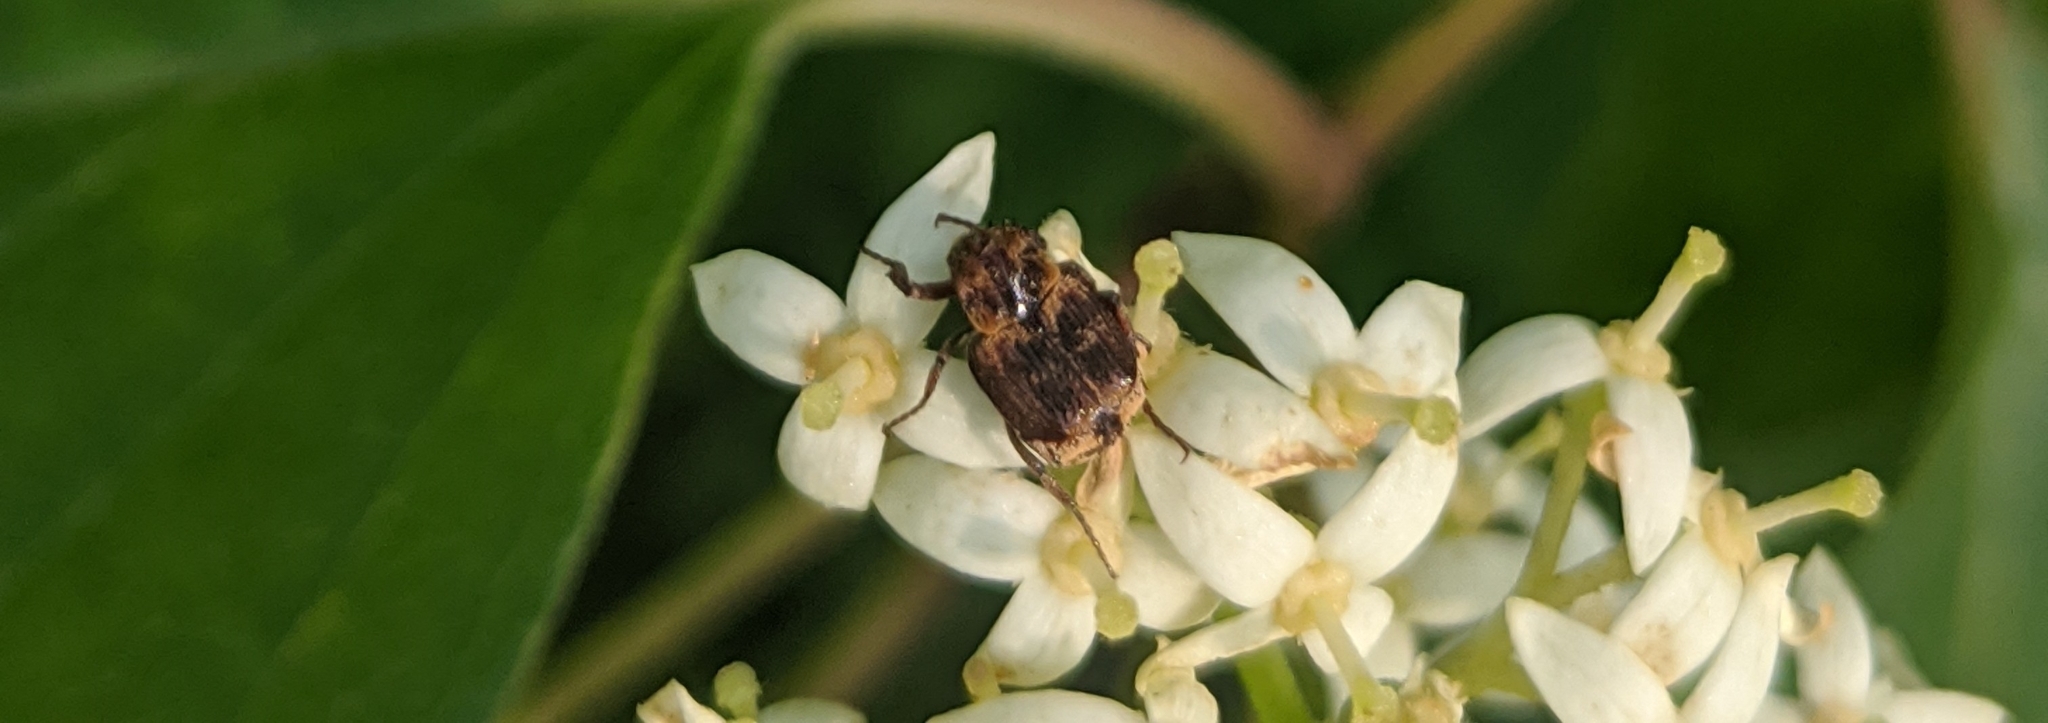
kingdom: Animalia
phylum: Arthropoda
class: Insecta
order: Coleoptera
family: Scarabaeidae
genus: Valgus
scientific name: Valgus canaliculatus
